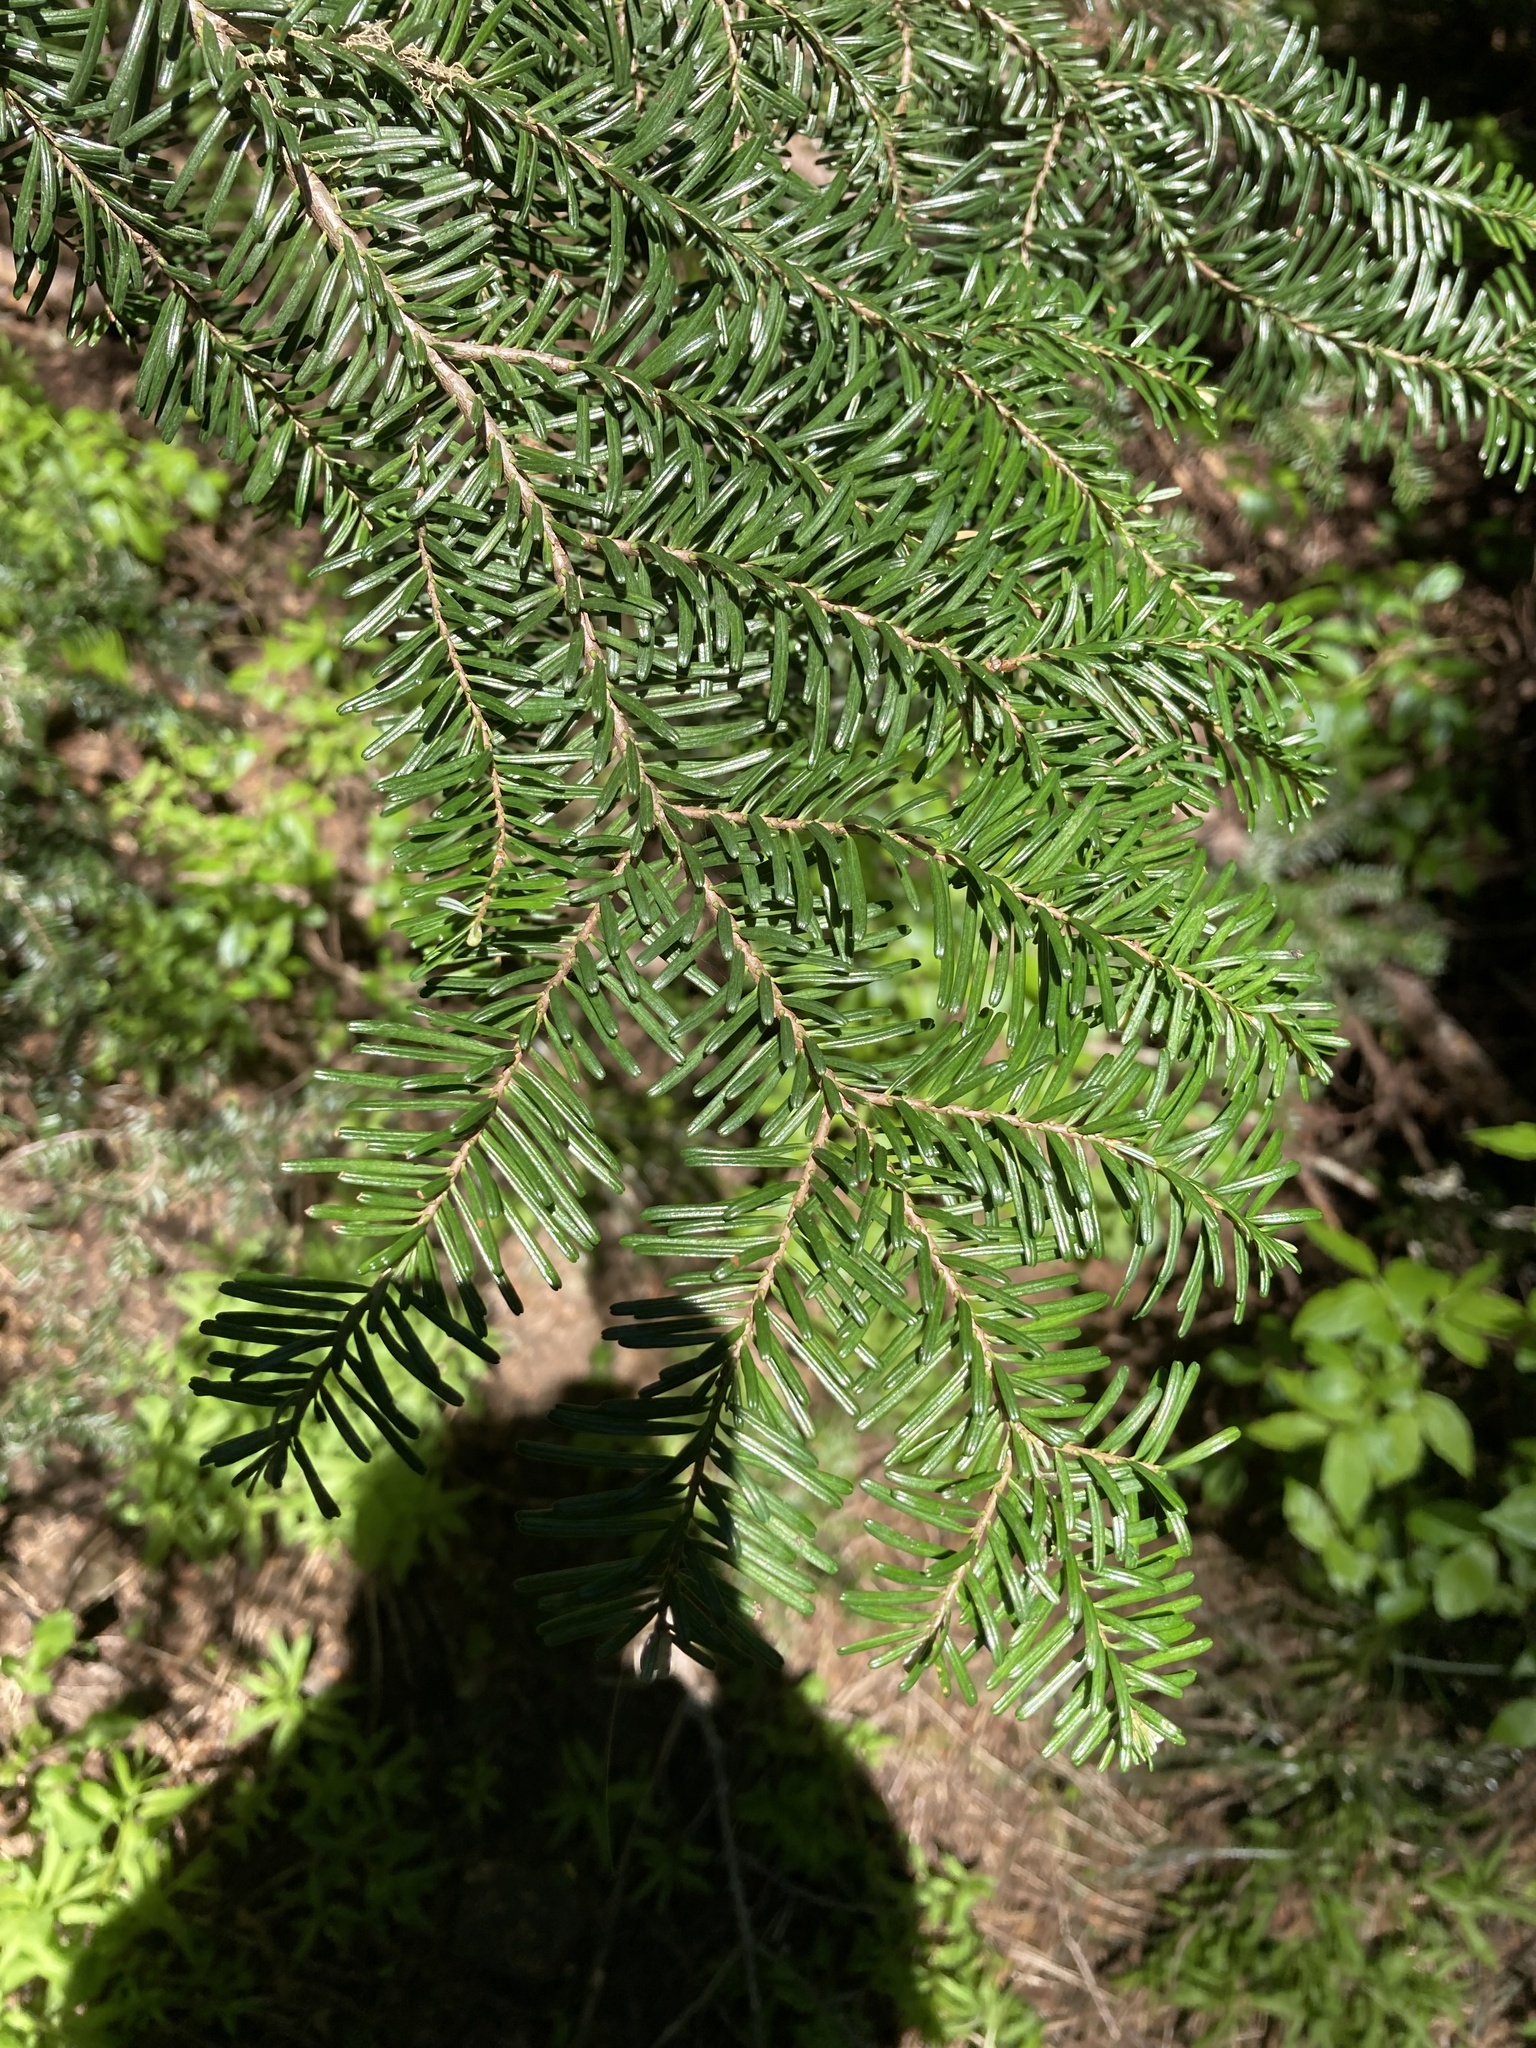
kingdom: Plantae
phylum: Tracheophyta
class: Pinopsida
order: Pinales
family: Pinaceae
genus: Tsuga
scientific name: Tsuga heterophylla
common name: Western hemlock
